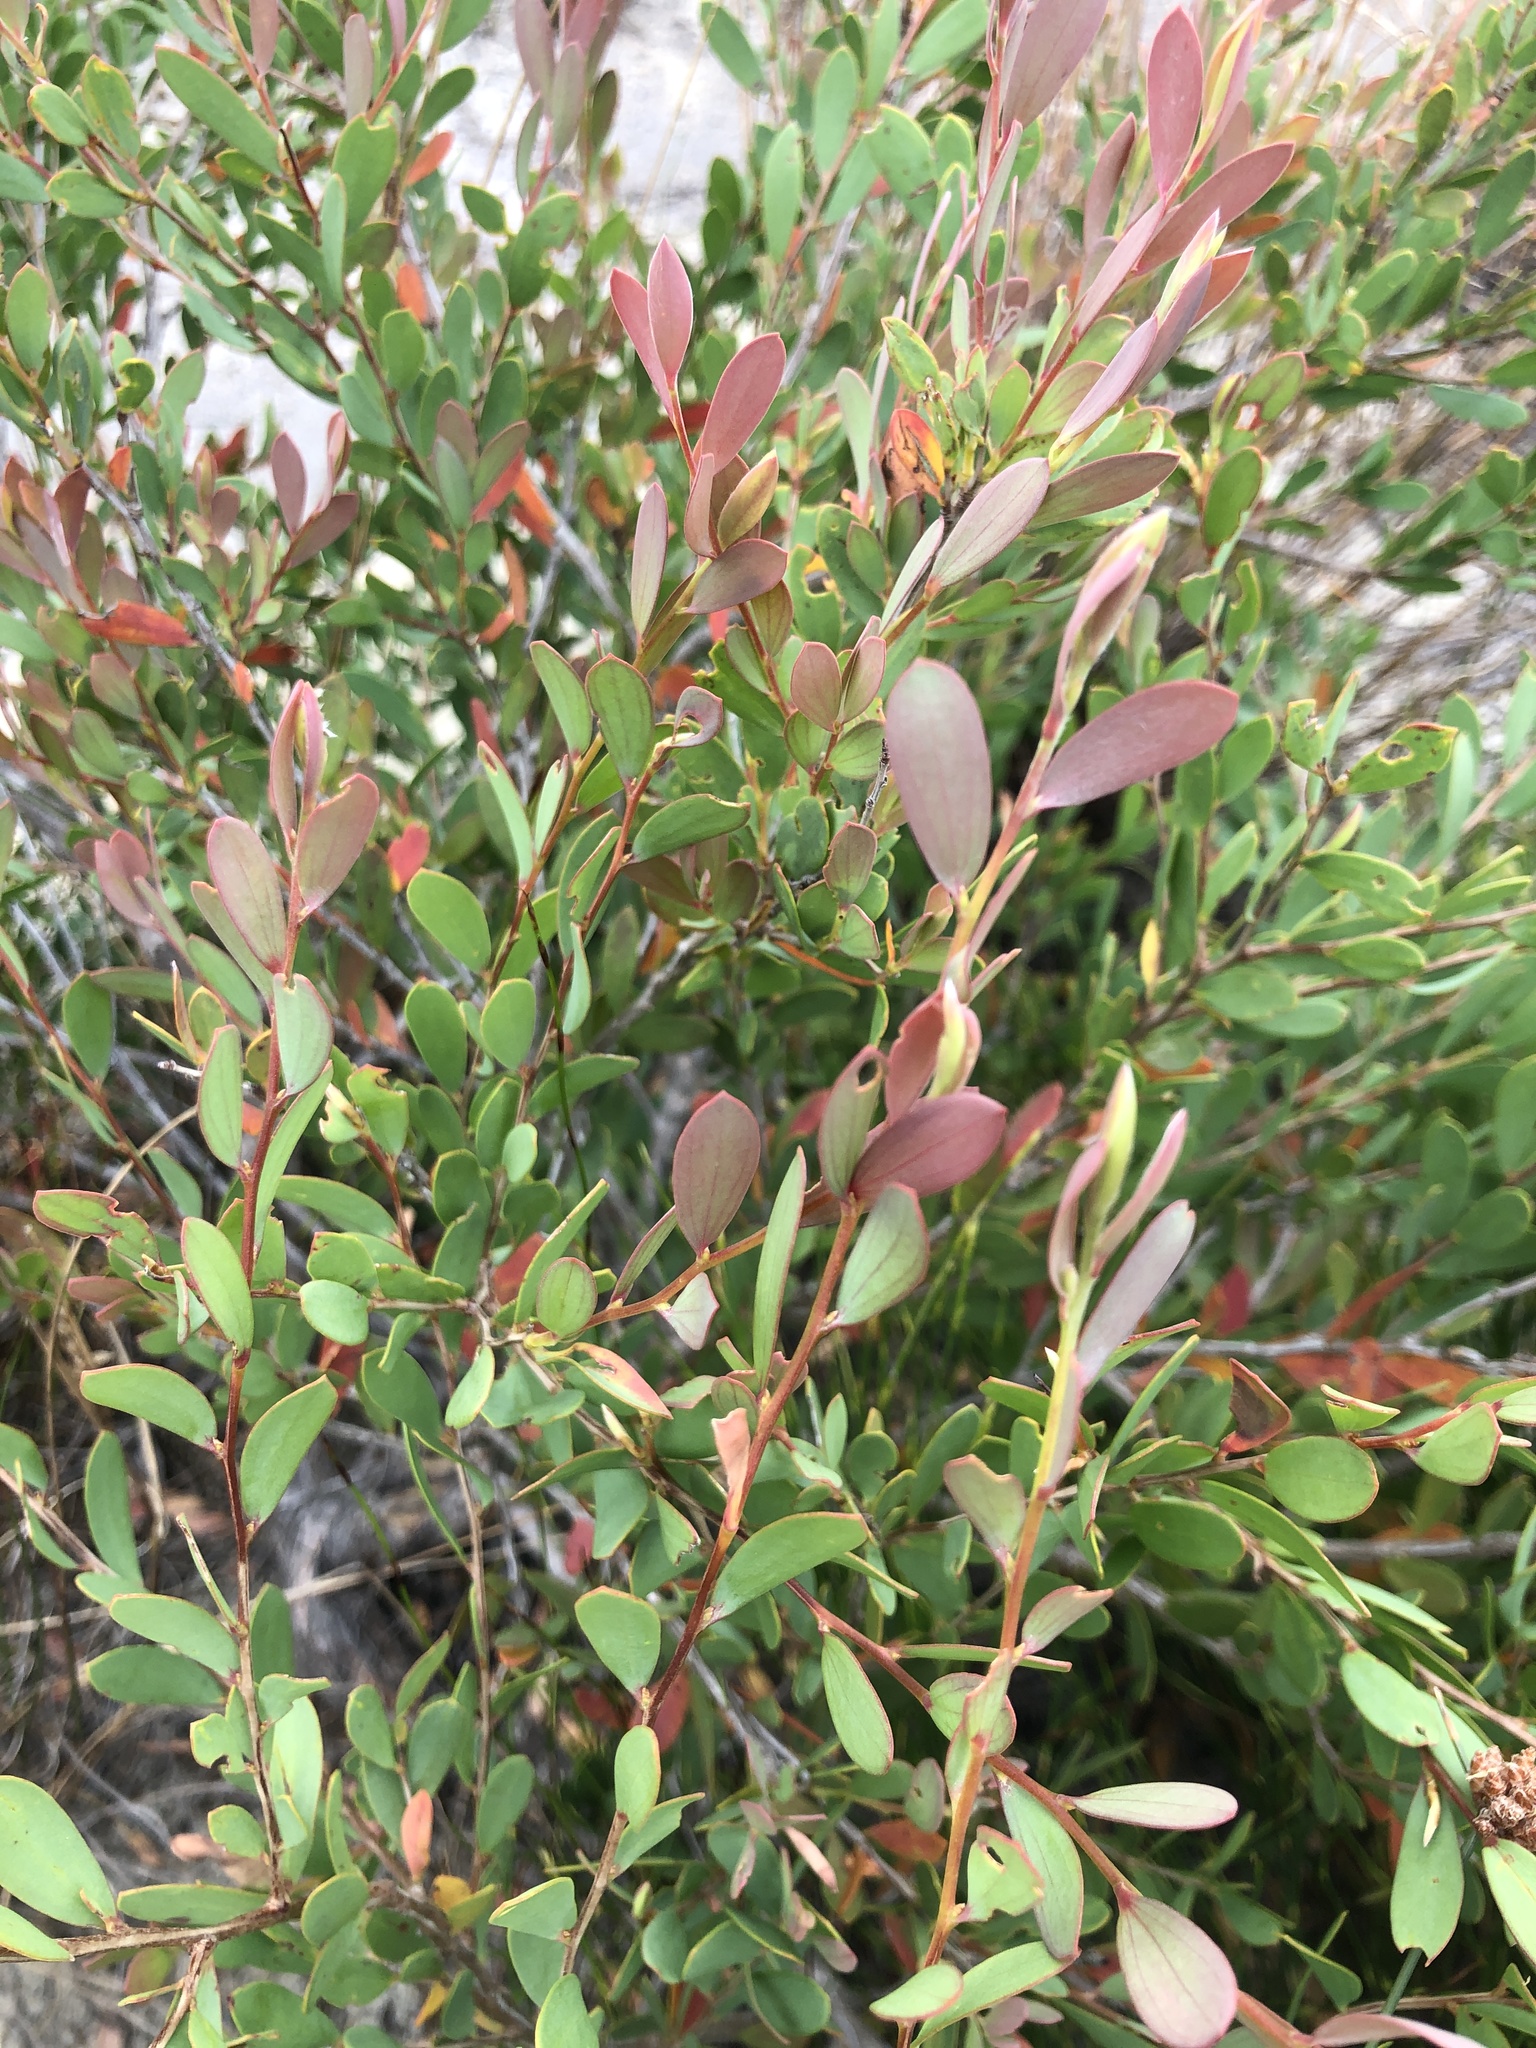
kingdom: Plantae
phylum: Tracheophyta
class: Magnoliopsida
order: Myrtales
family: Myrtaceae
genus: Leptospermum
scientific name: Leptospermum laevigatum
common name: Australian teatree
